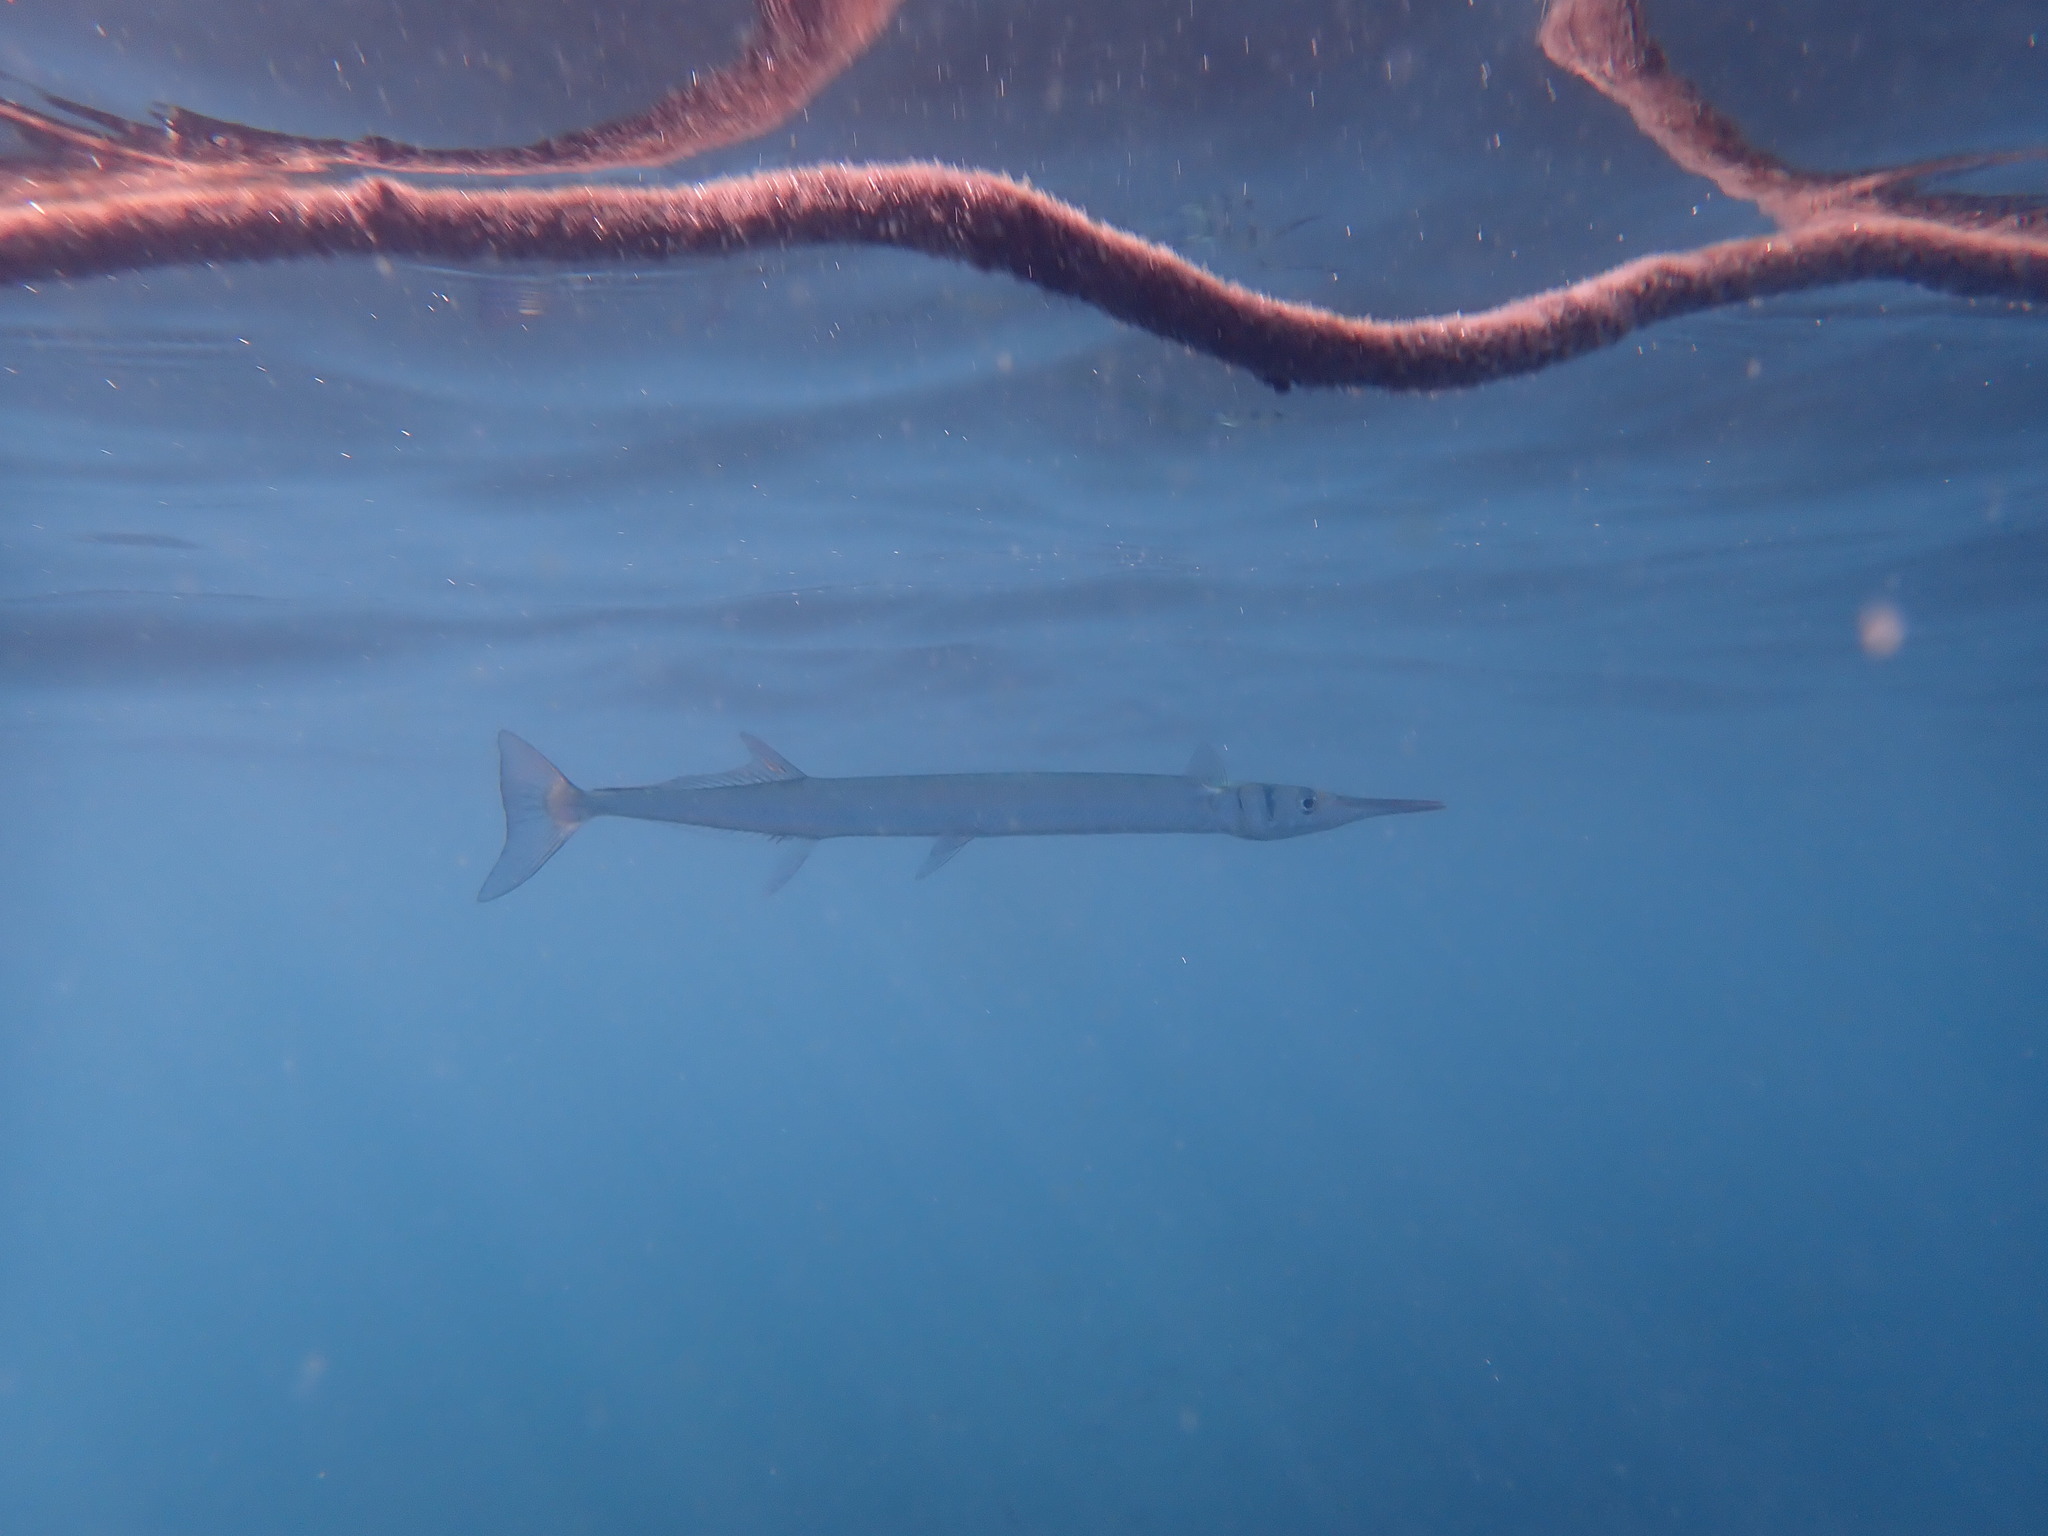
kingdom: Animalia
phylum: Chordata
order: Beloniformes
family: Belonidae
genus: Tylosurus
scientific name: Tylosurus crocodilus
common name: Houndfish
